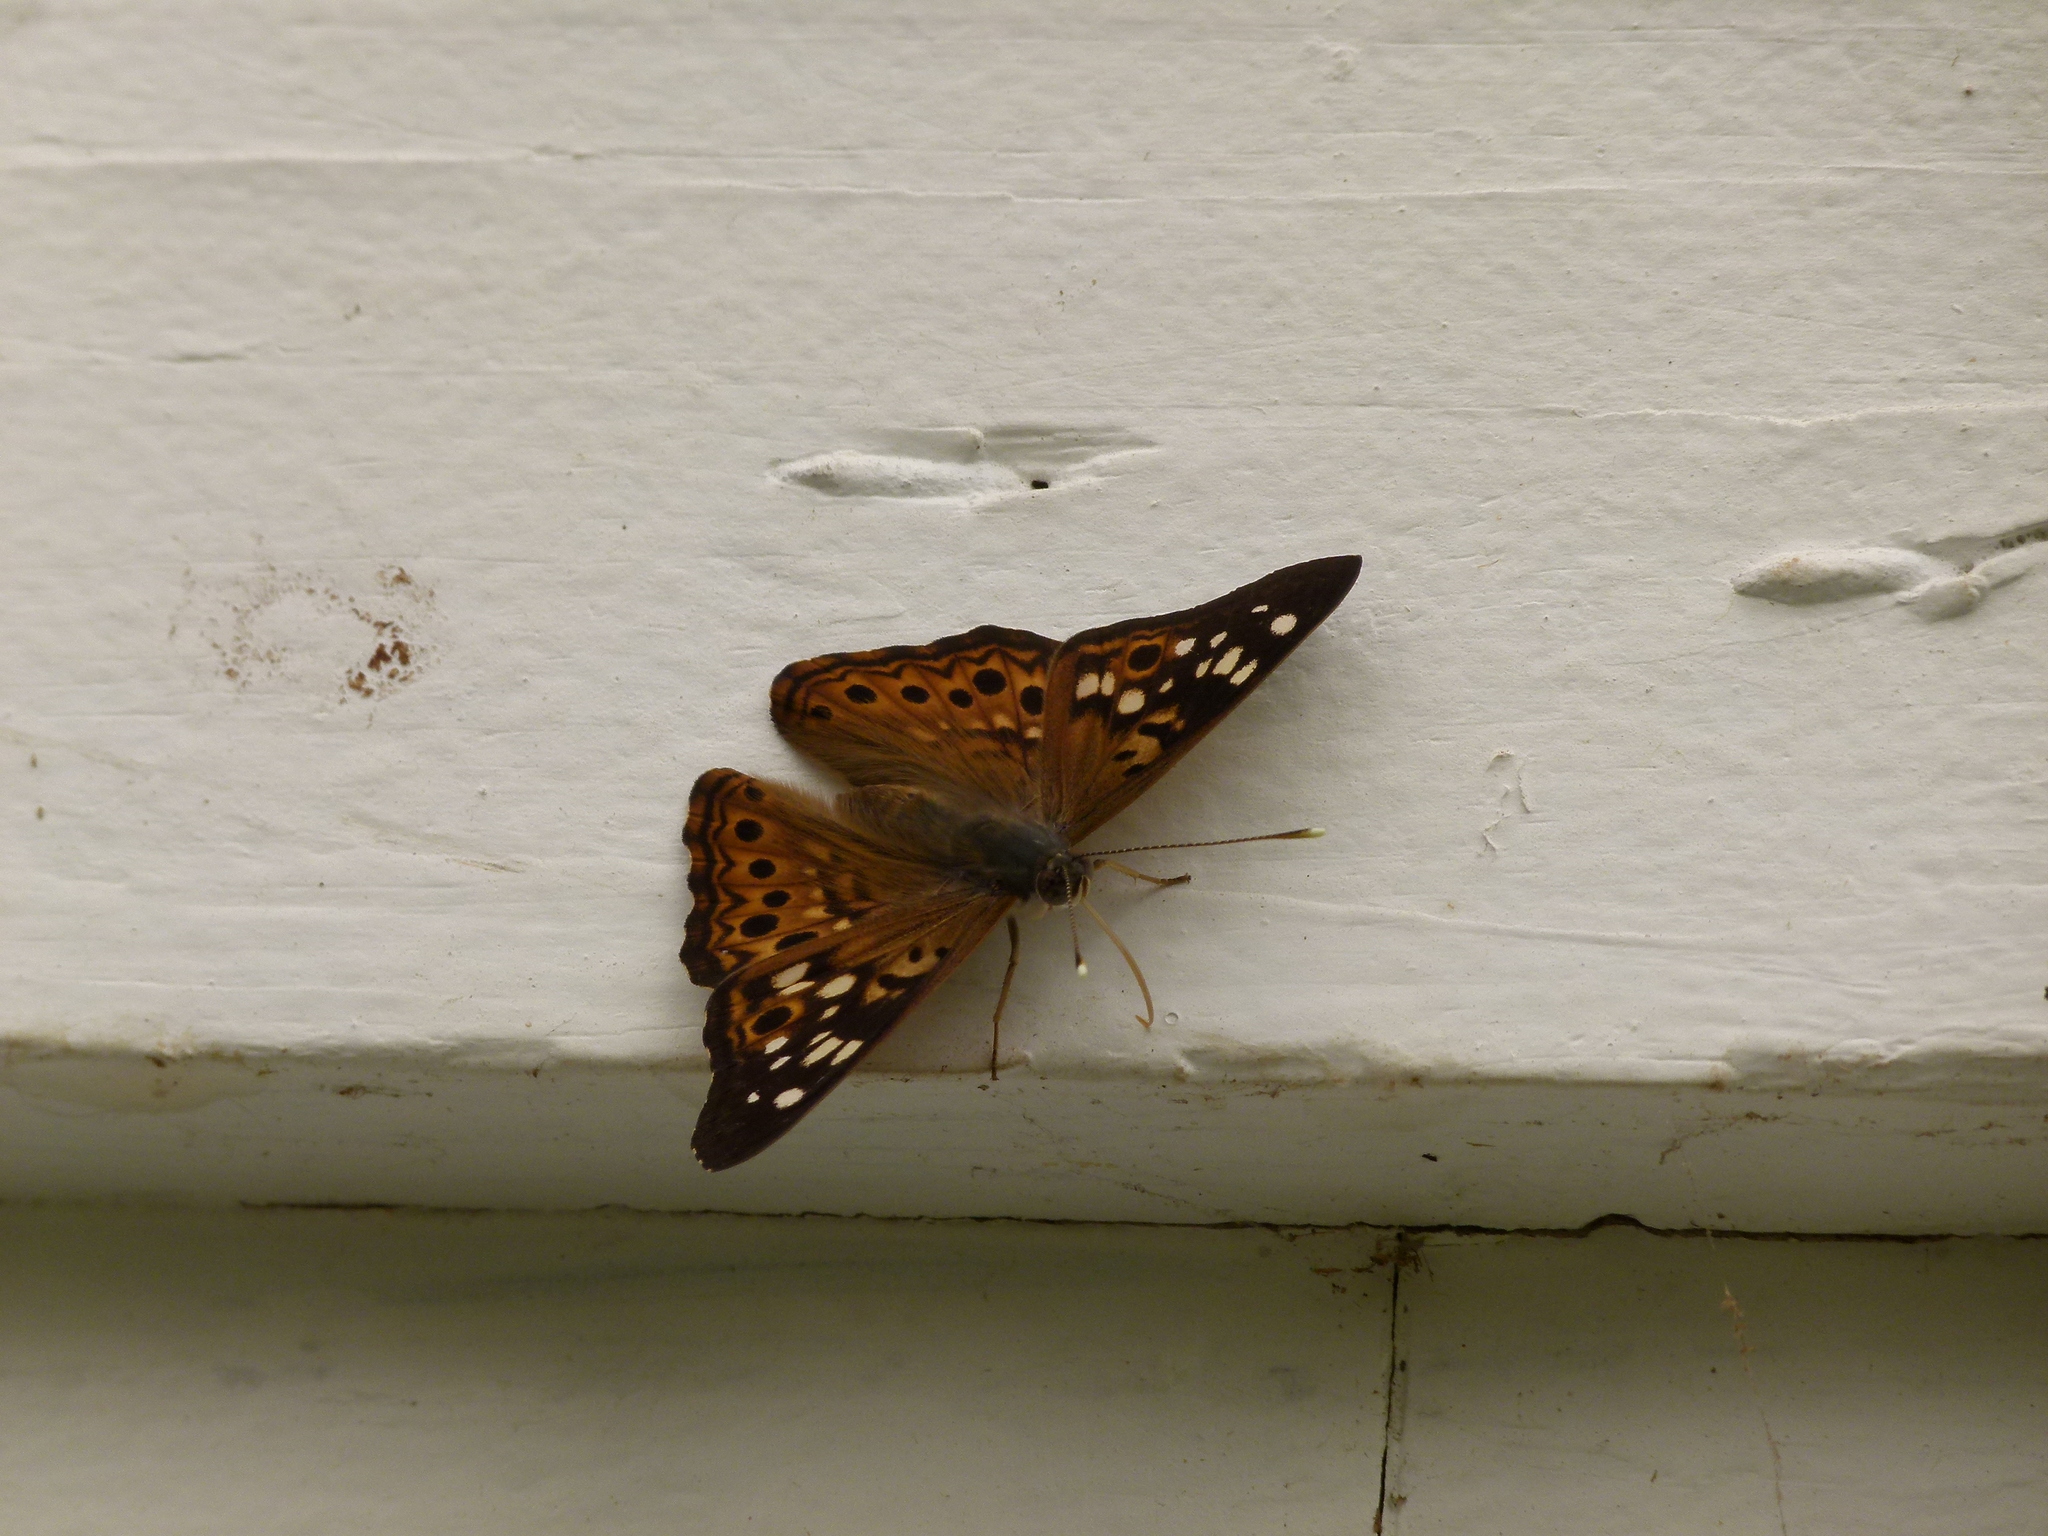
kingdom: Animalia
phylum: Arthropoda
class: Insecta
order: Lepidoptera
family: Nymphalidae
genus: Asterocampa
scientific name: Asterocampa celtis
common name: Hackberry emperor
